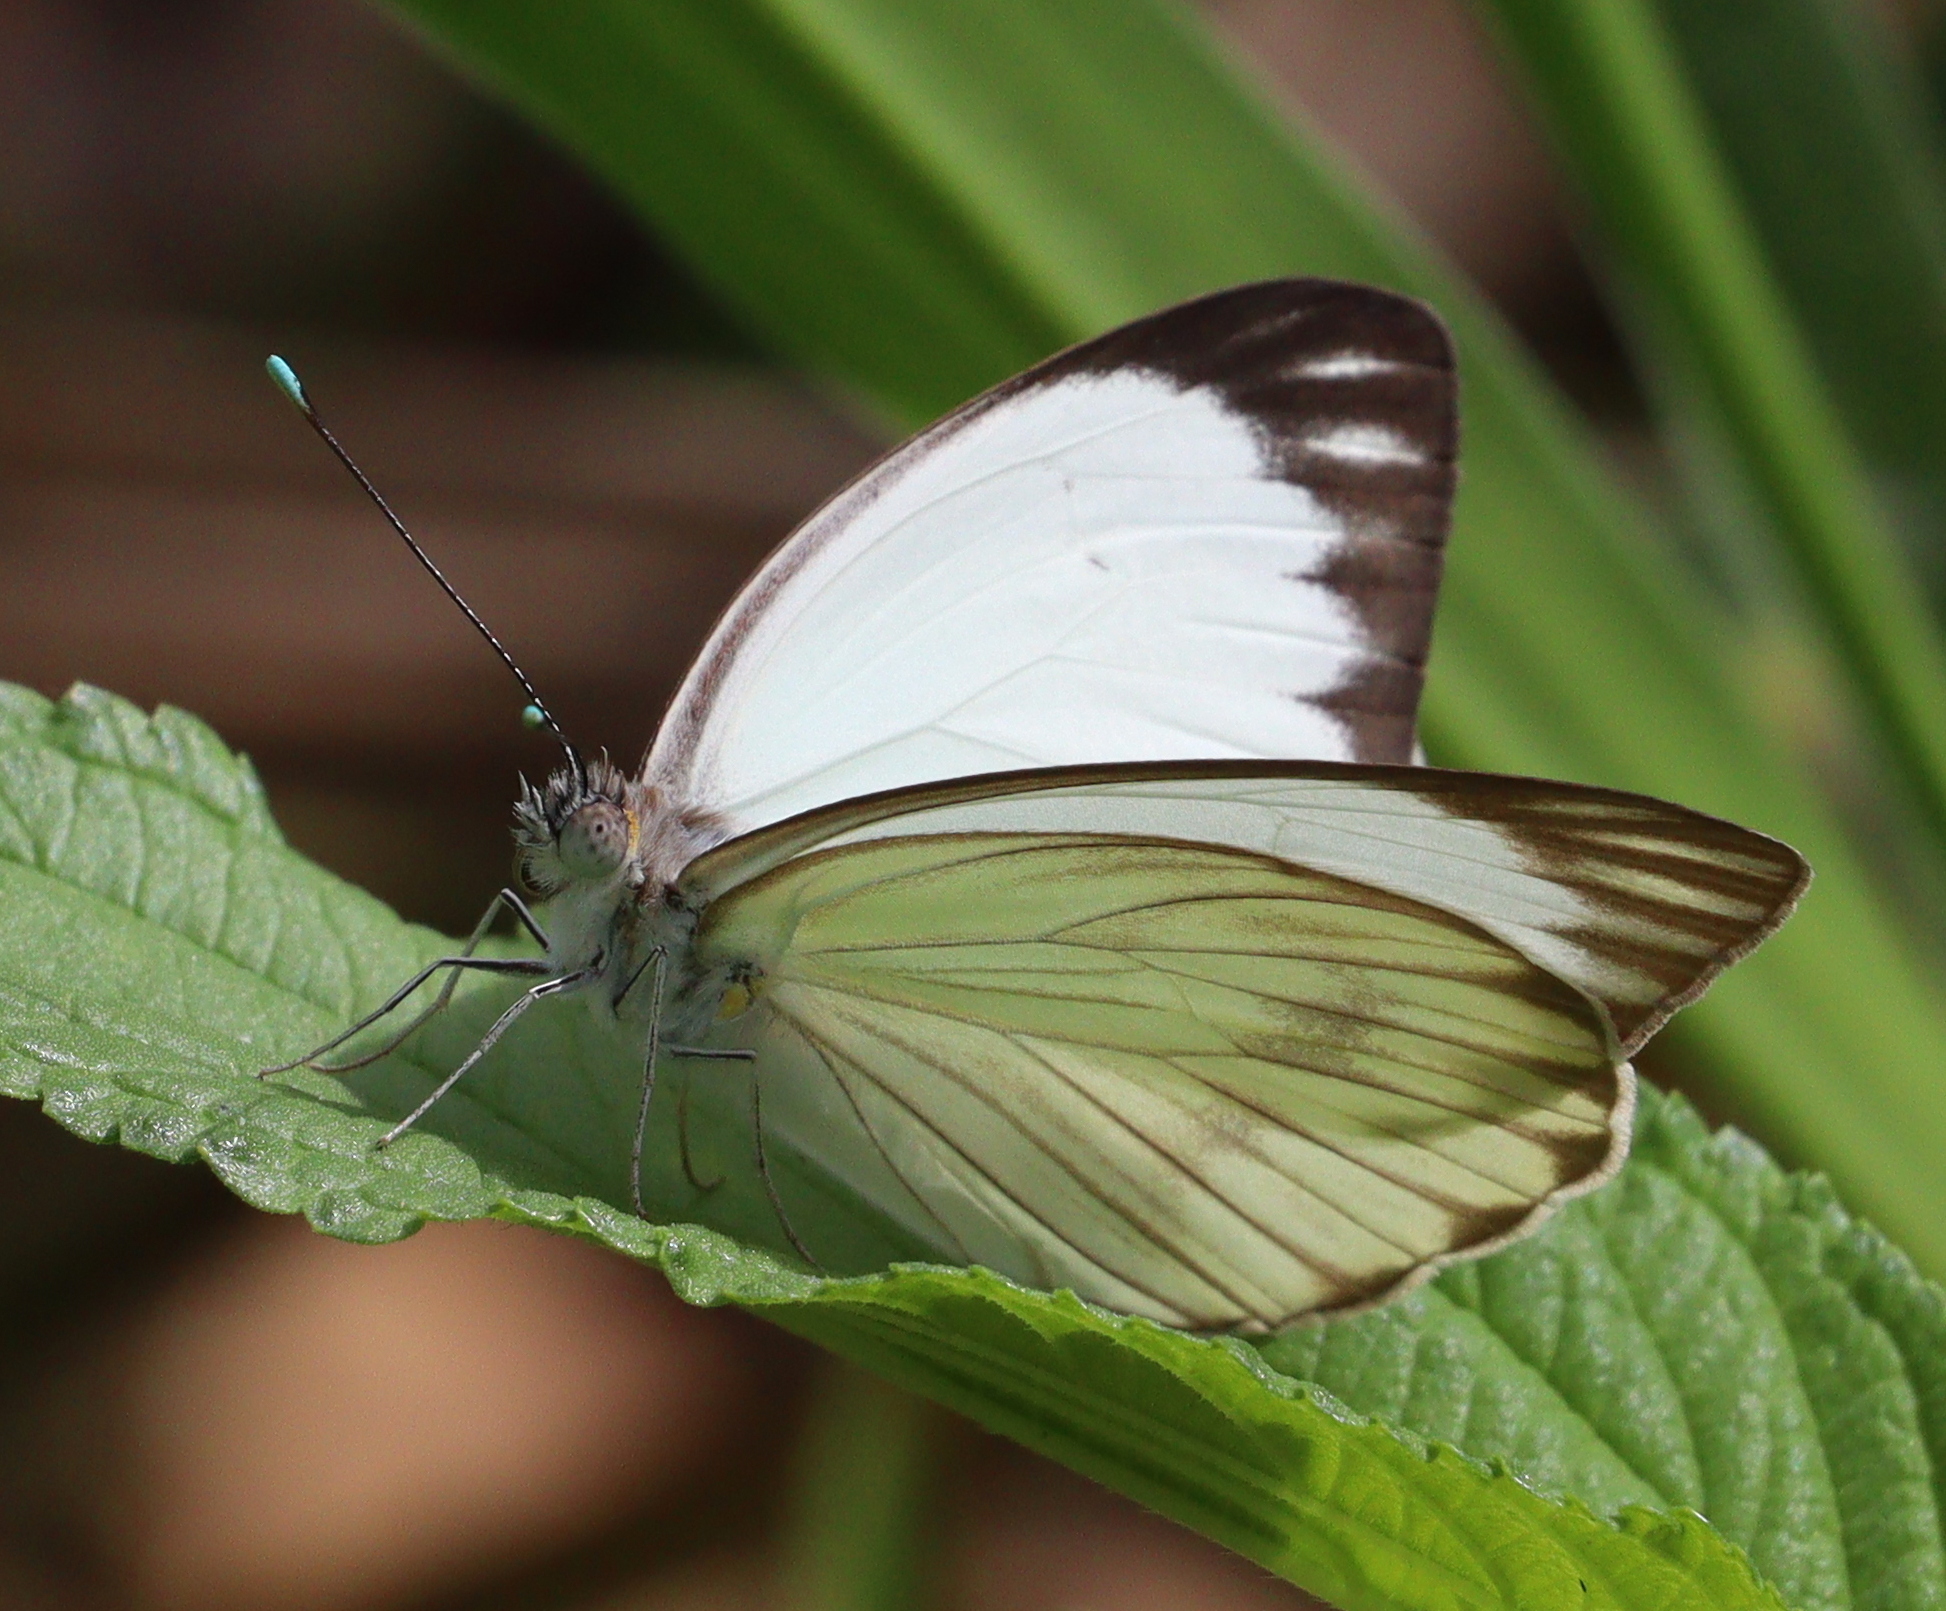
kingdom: Animalia
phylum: Arthropoda
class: Insecta
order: Lepidoptera
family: Pieridae
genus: Ascia
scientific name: Ascia monuste
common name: Great southern white
